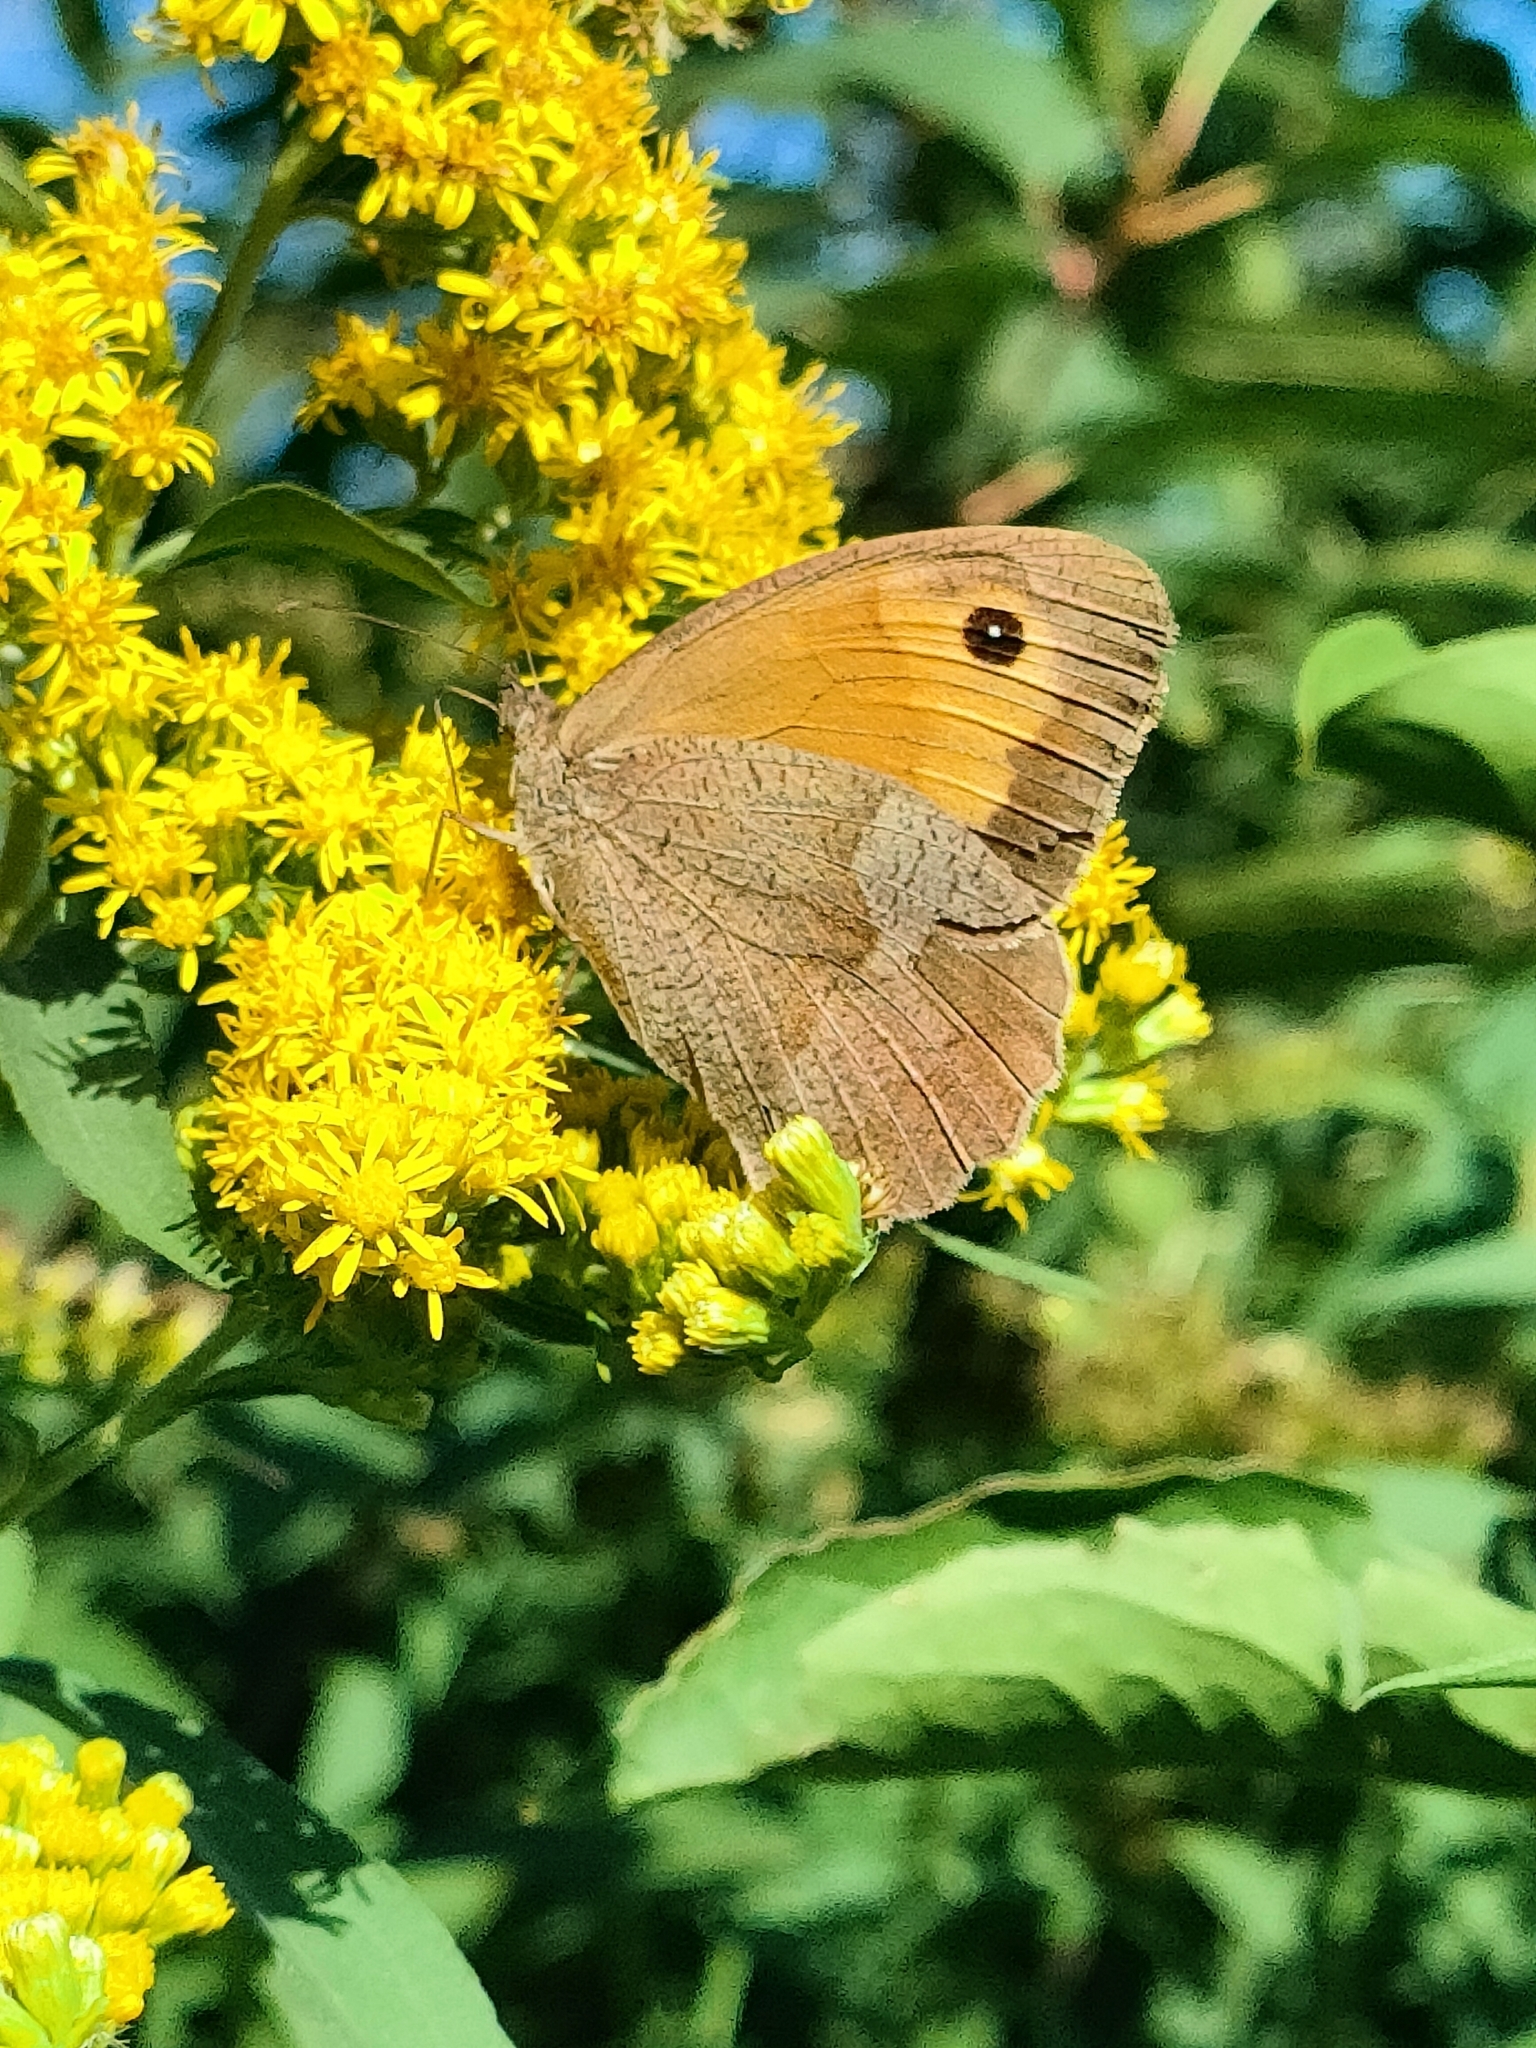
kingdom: Animalia
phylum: Arthropoda
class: Insecta
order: Lepidoptera
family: Nymphalidae
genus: Maniola
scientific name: Maniola jurtina
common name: Meadow brown
